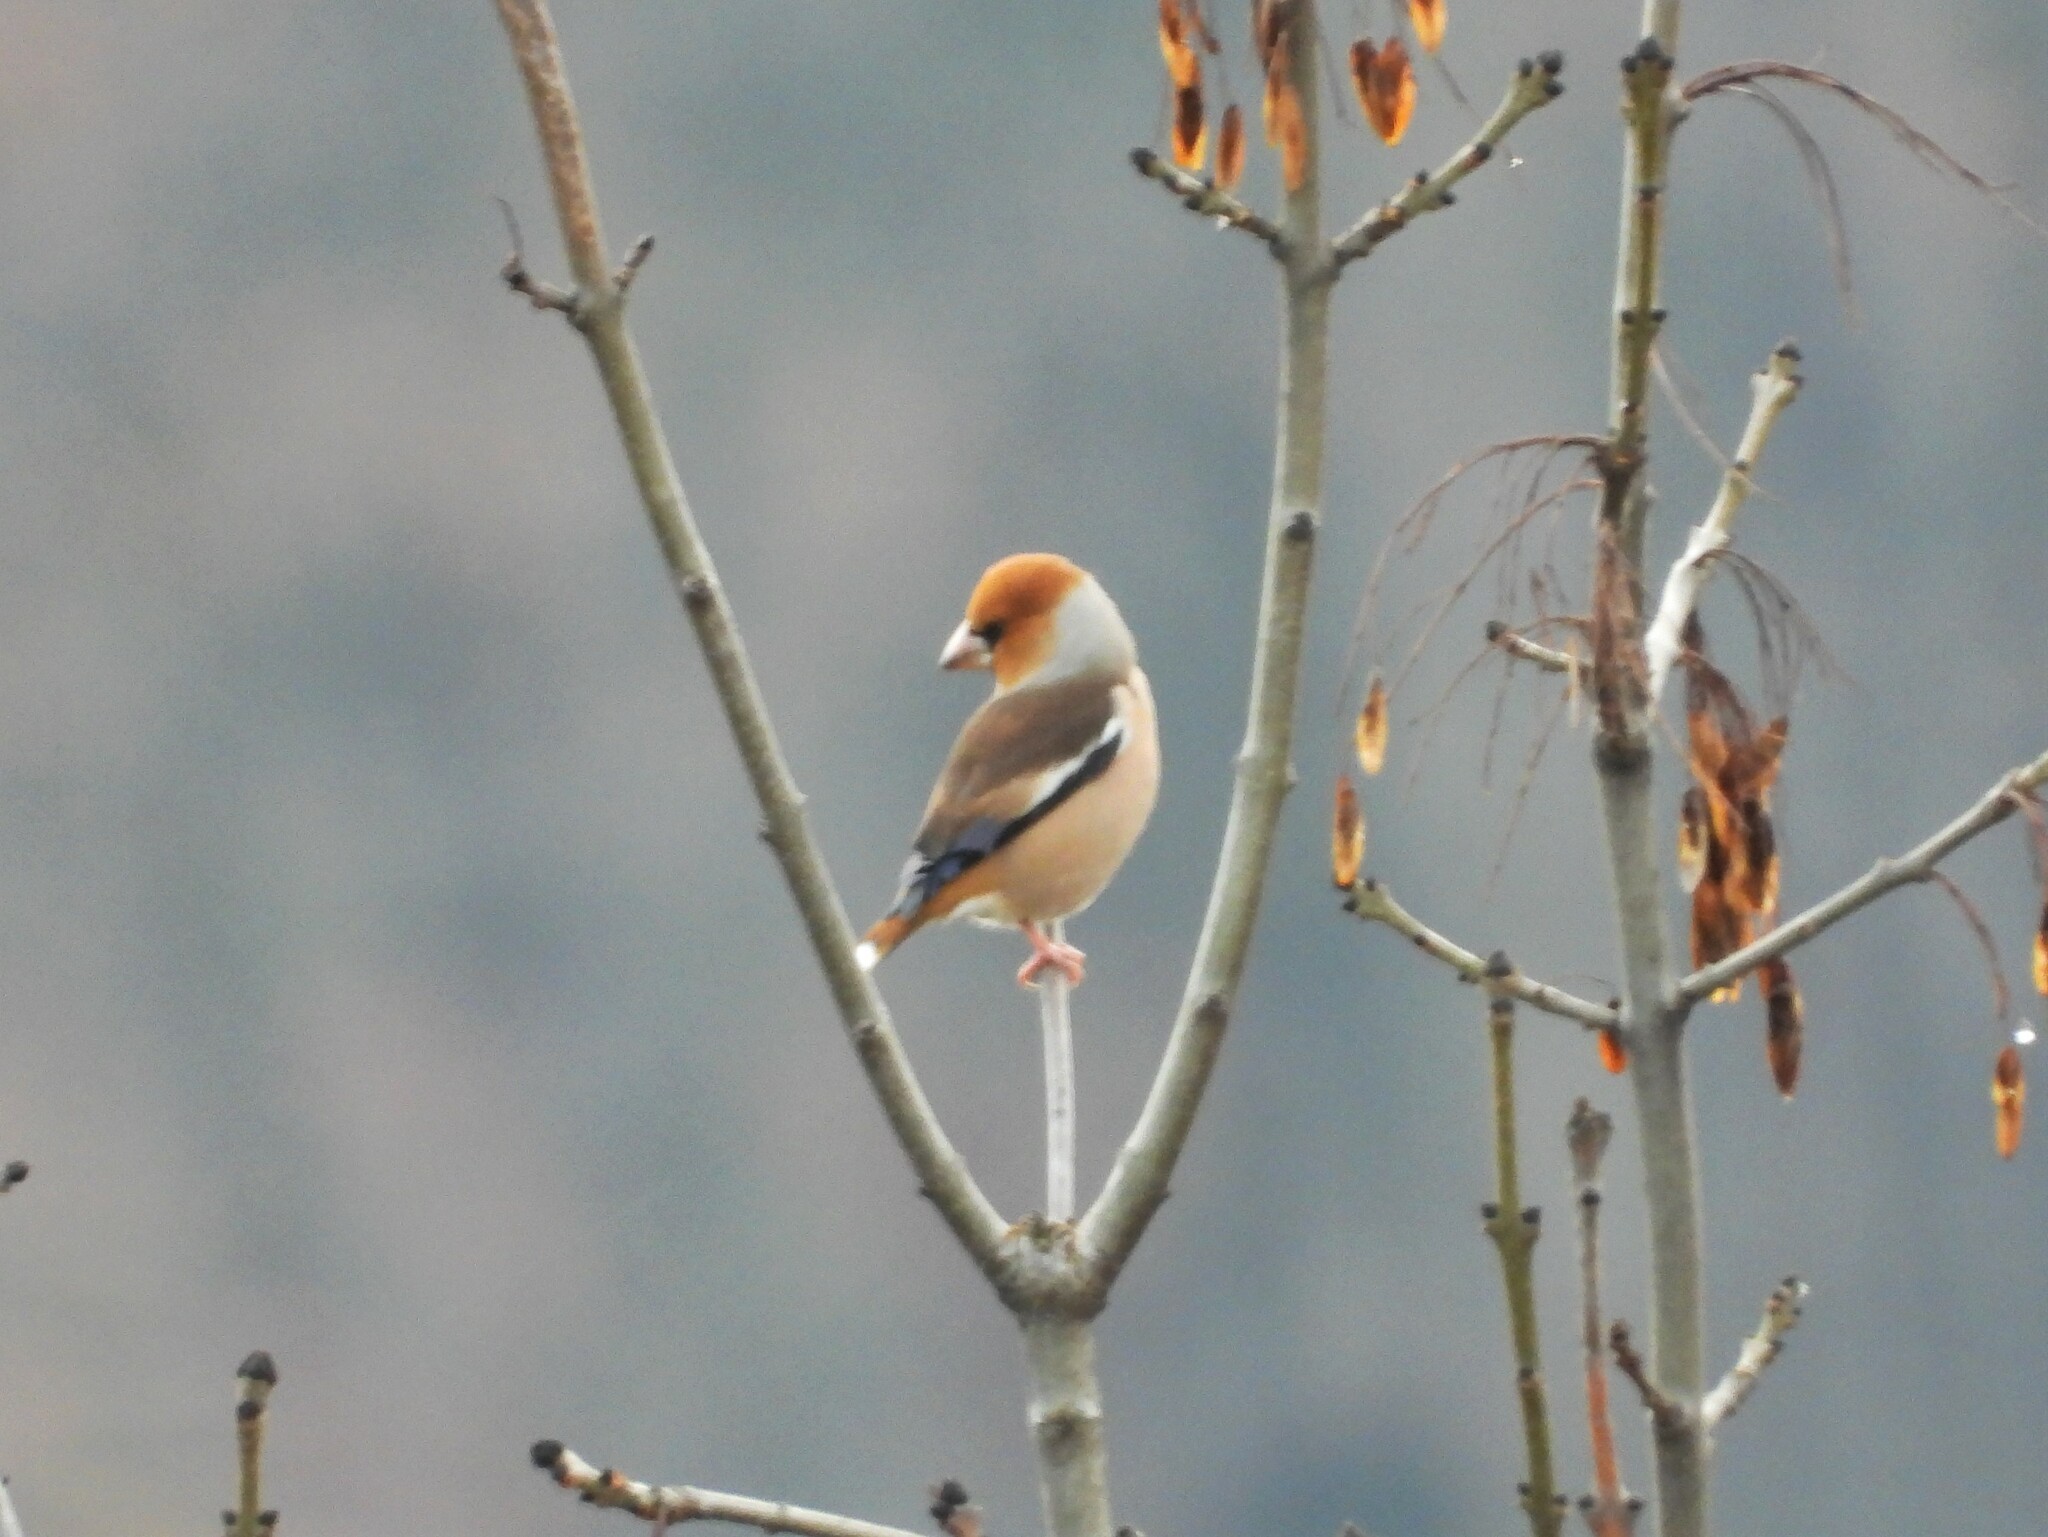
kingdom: Animalia
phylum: Chordata
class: Aves
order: Passeriformes
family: Fringillidae
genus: Coccothraustes
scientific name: Coccothraustes coccothraustes
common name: Hawfinch
